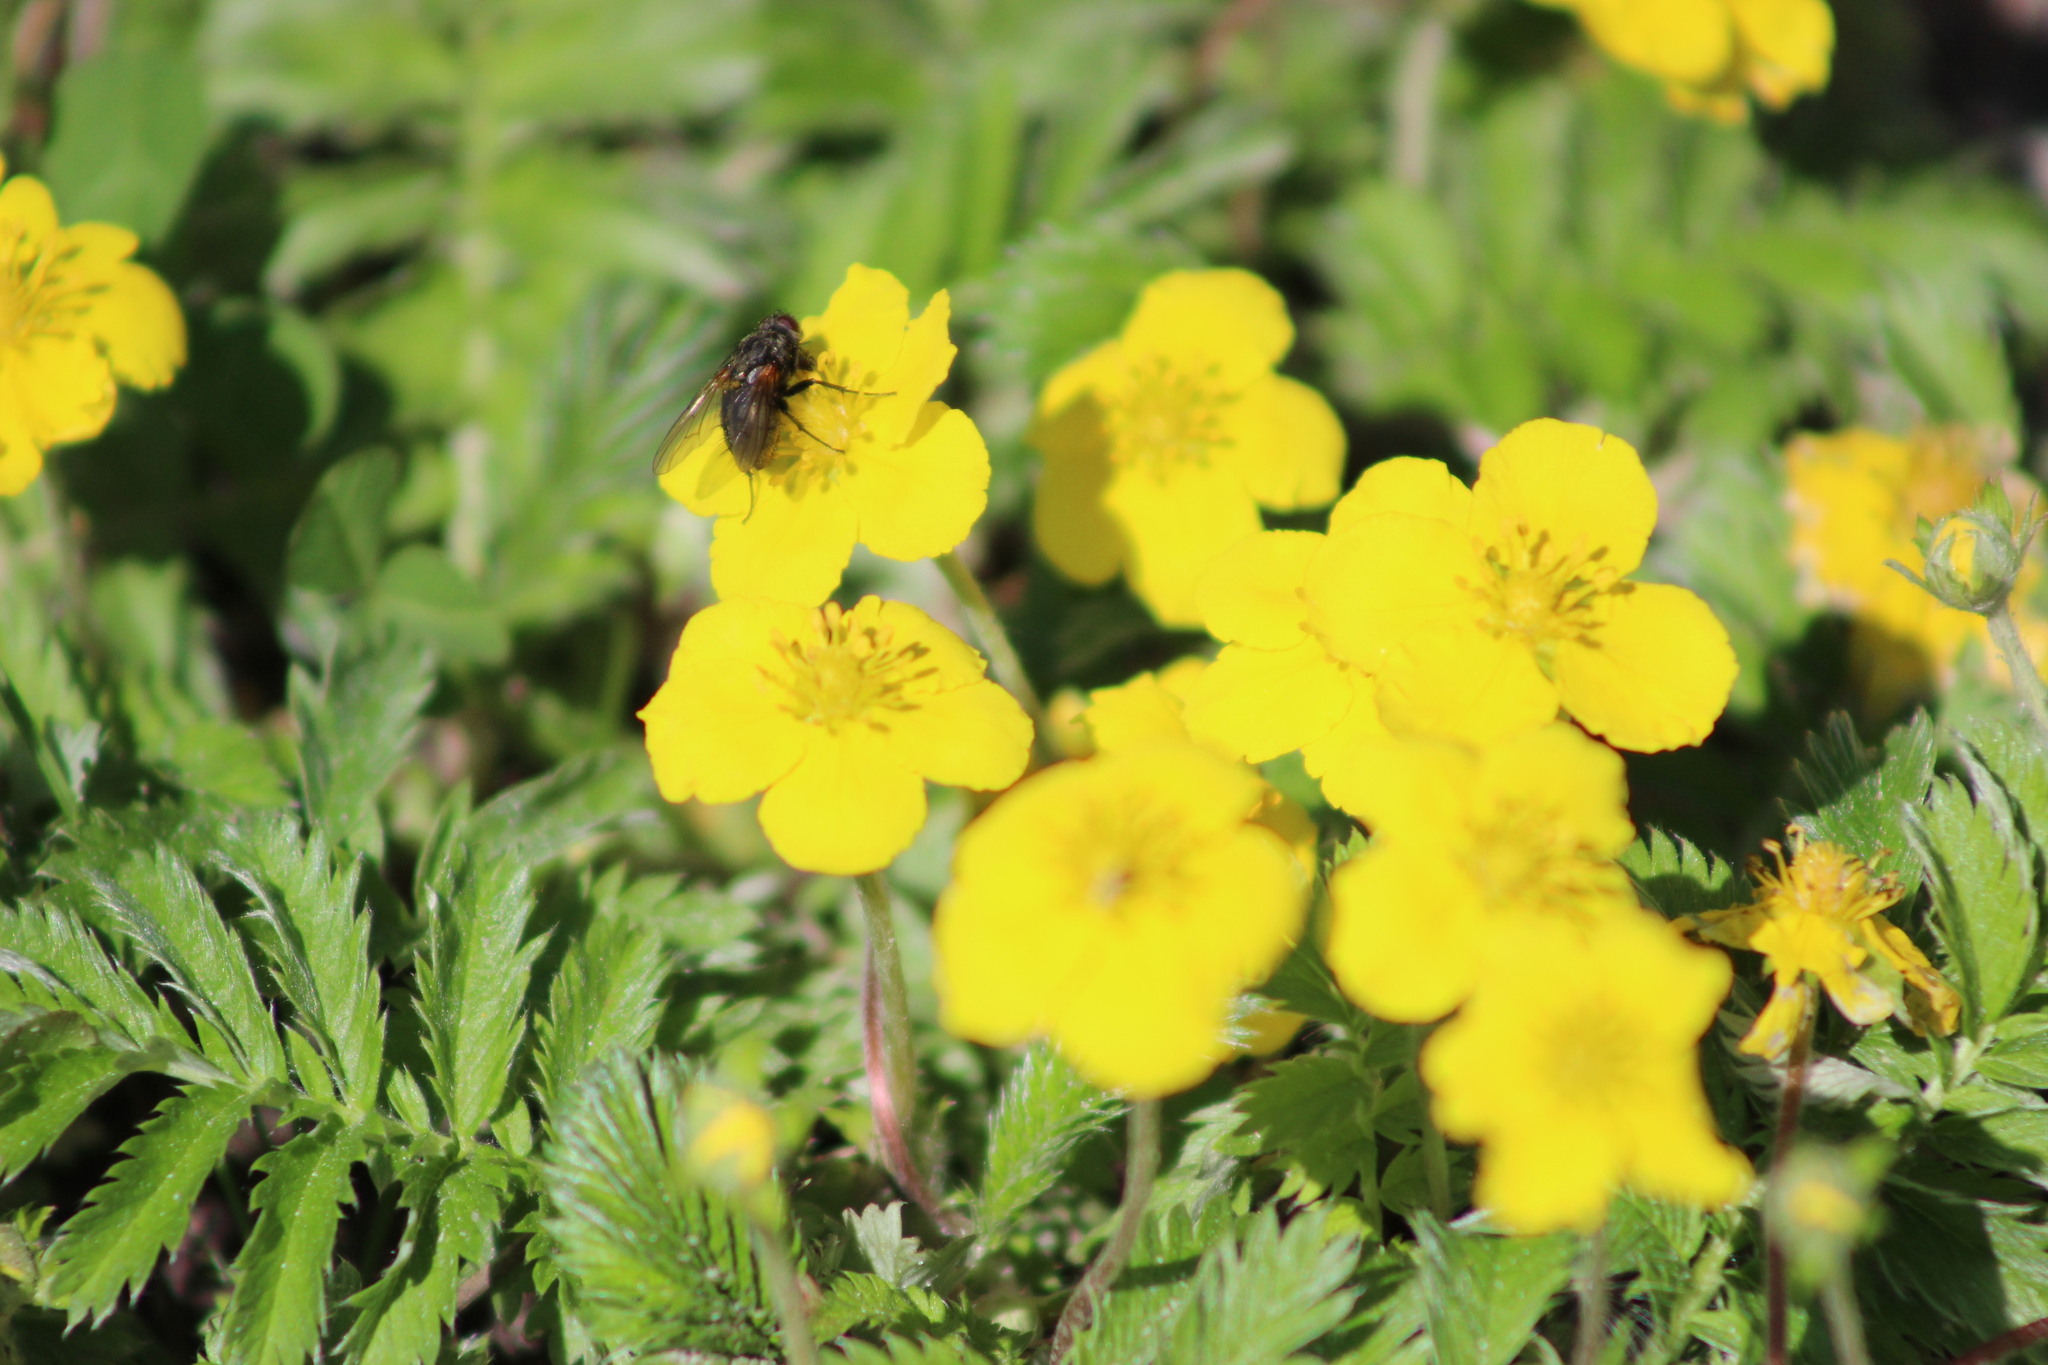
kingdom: Plantae
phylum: Tracheophyta
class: Magnoliopsida
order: Rosales
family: Rosaceae
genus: Argentina
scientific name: Argentina anserina
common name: Common silverweed
